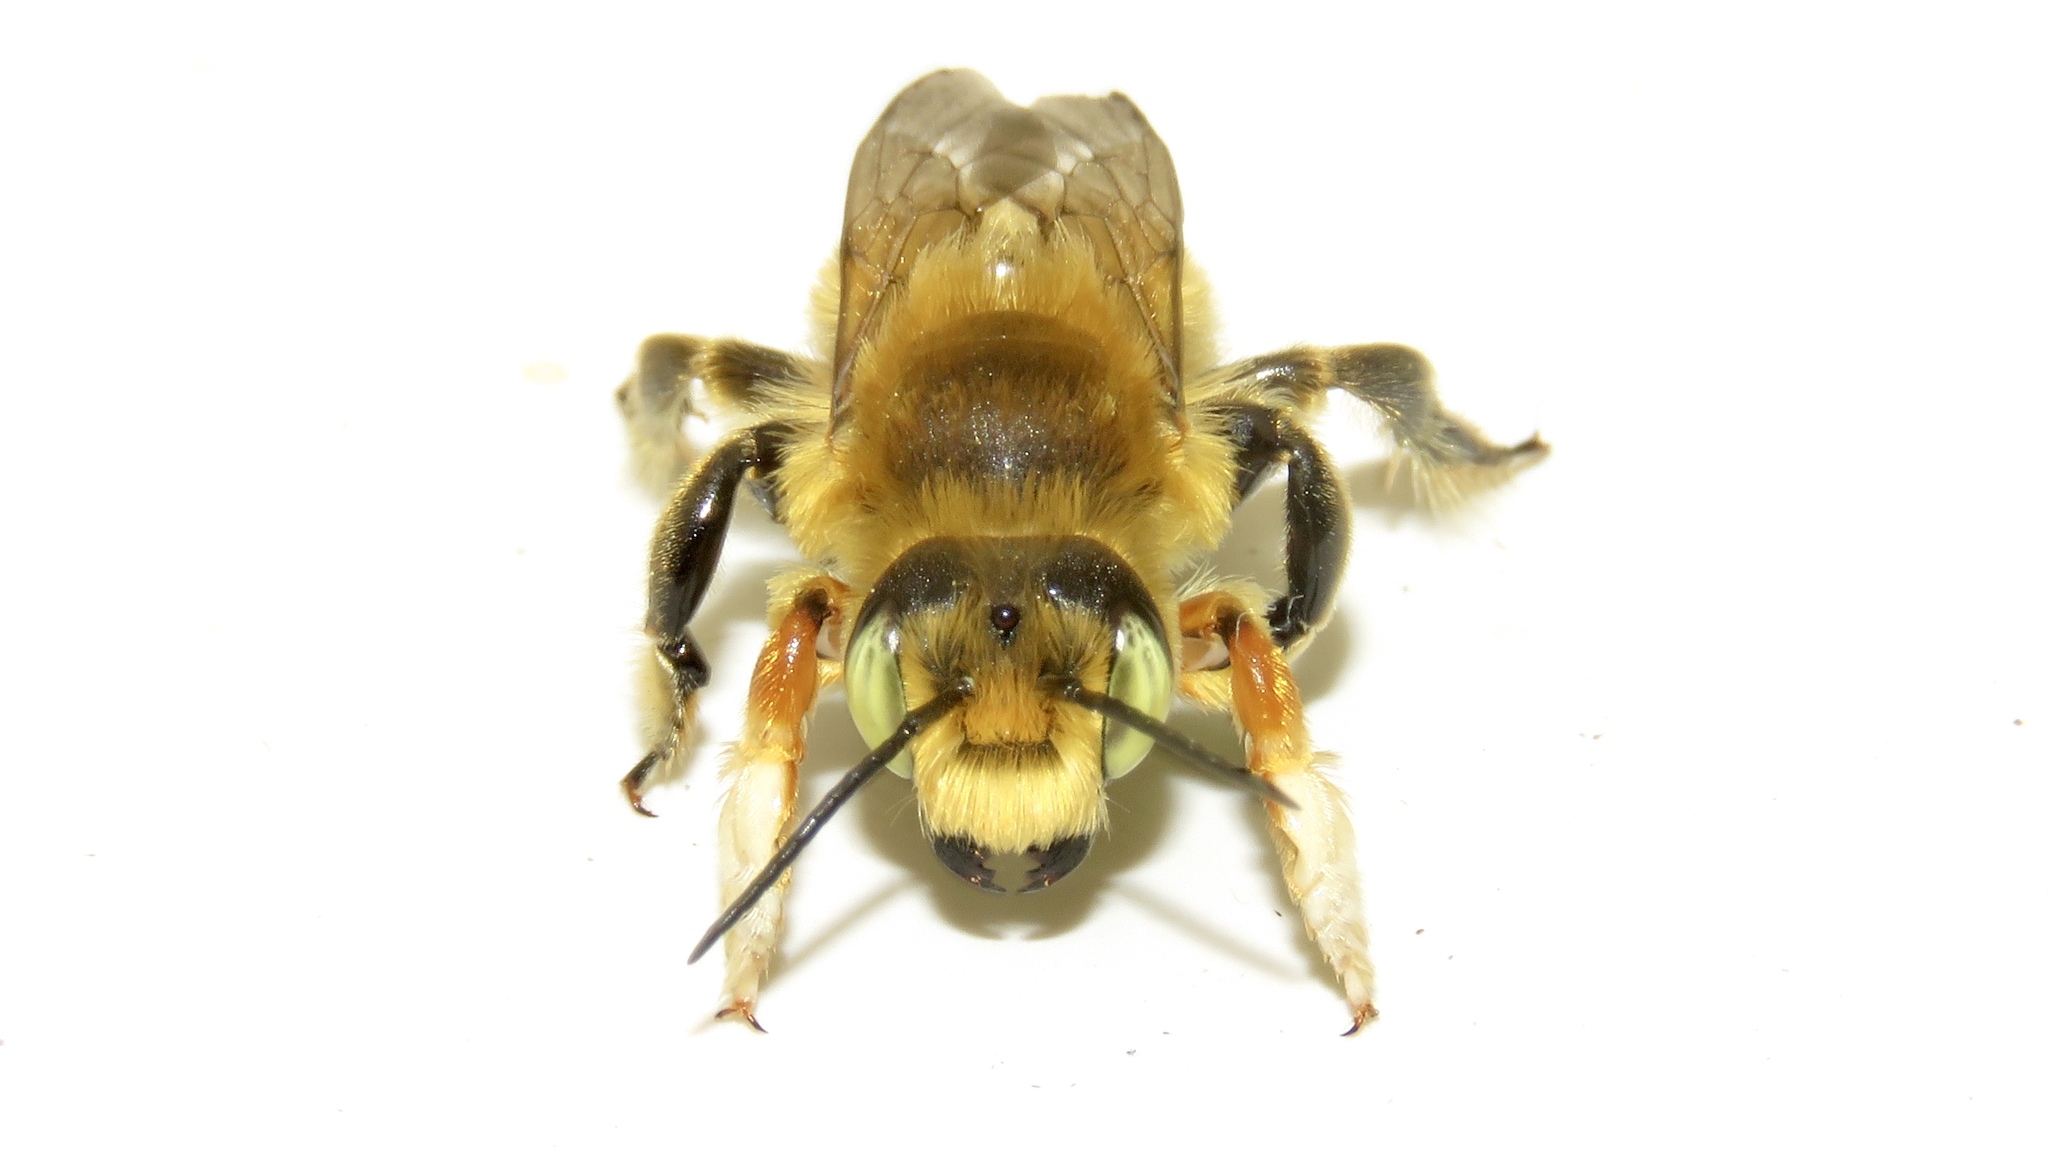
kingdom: Animalia
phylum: Arthropoda
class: Insecta
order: Hymenoptera
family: Megachilidae
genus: Megachile
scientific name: Megachile latimanus
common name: Leafcutting bee
